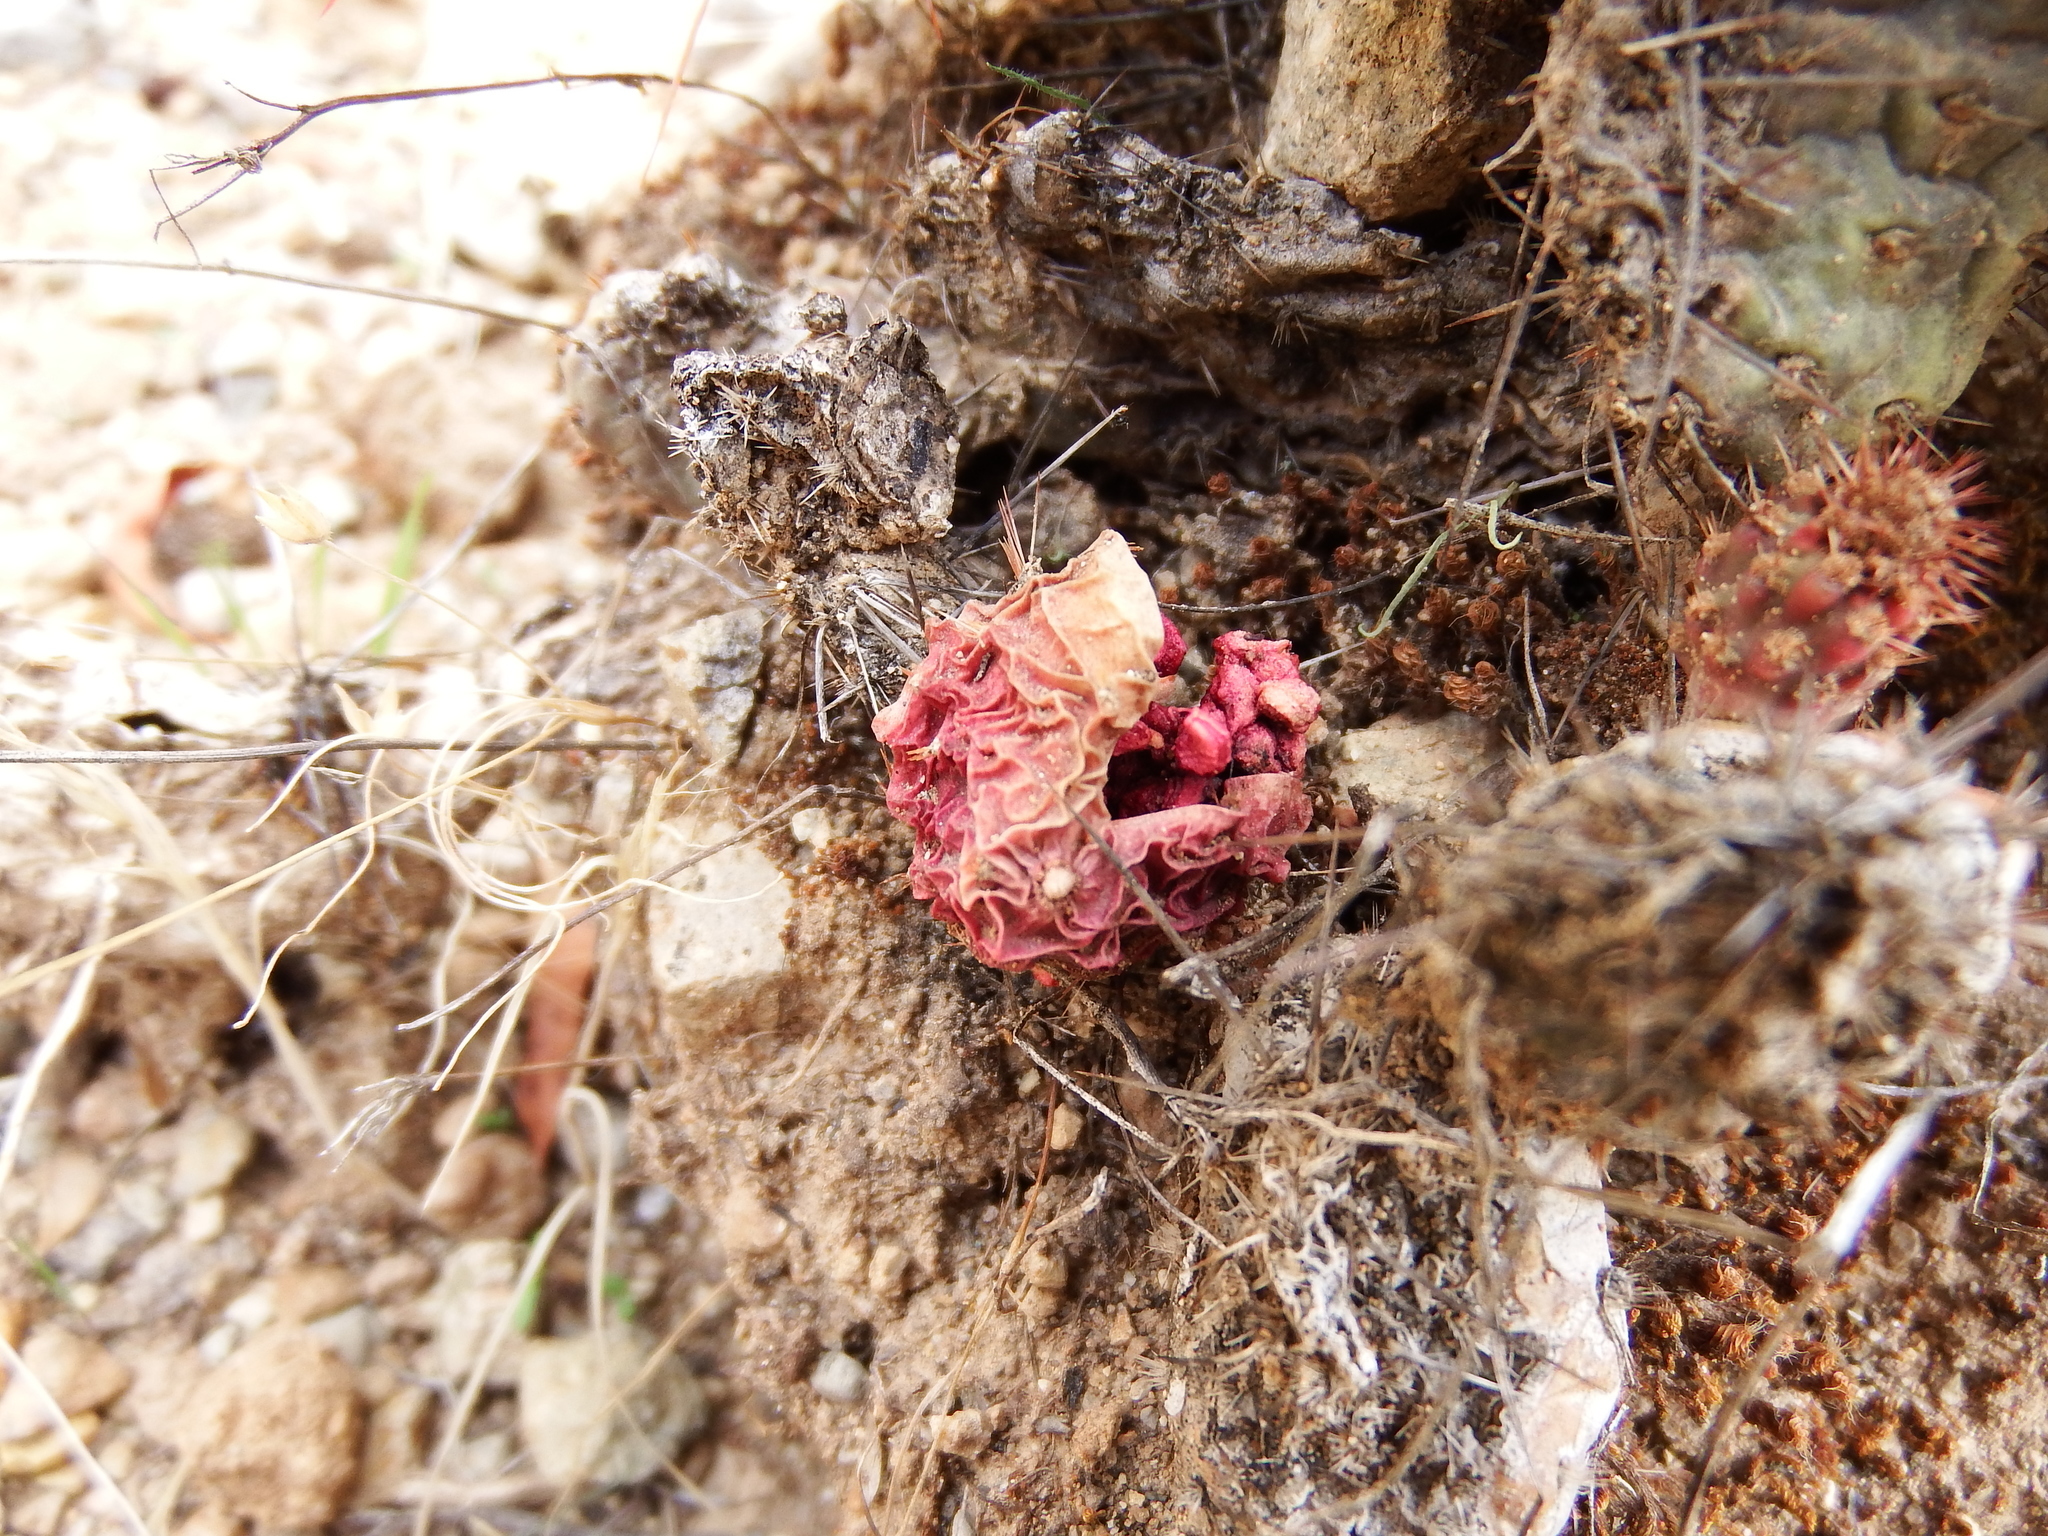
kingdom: Plantae
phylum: Tracheophyta
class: Magnoliopsida
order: Caryophyllales
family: Cactaceae
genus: Airampoa
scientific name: Airampoa soehrensii
